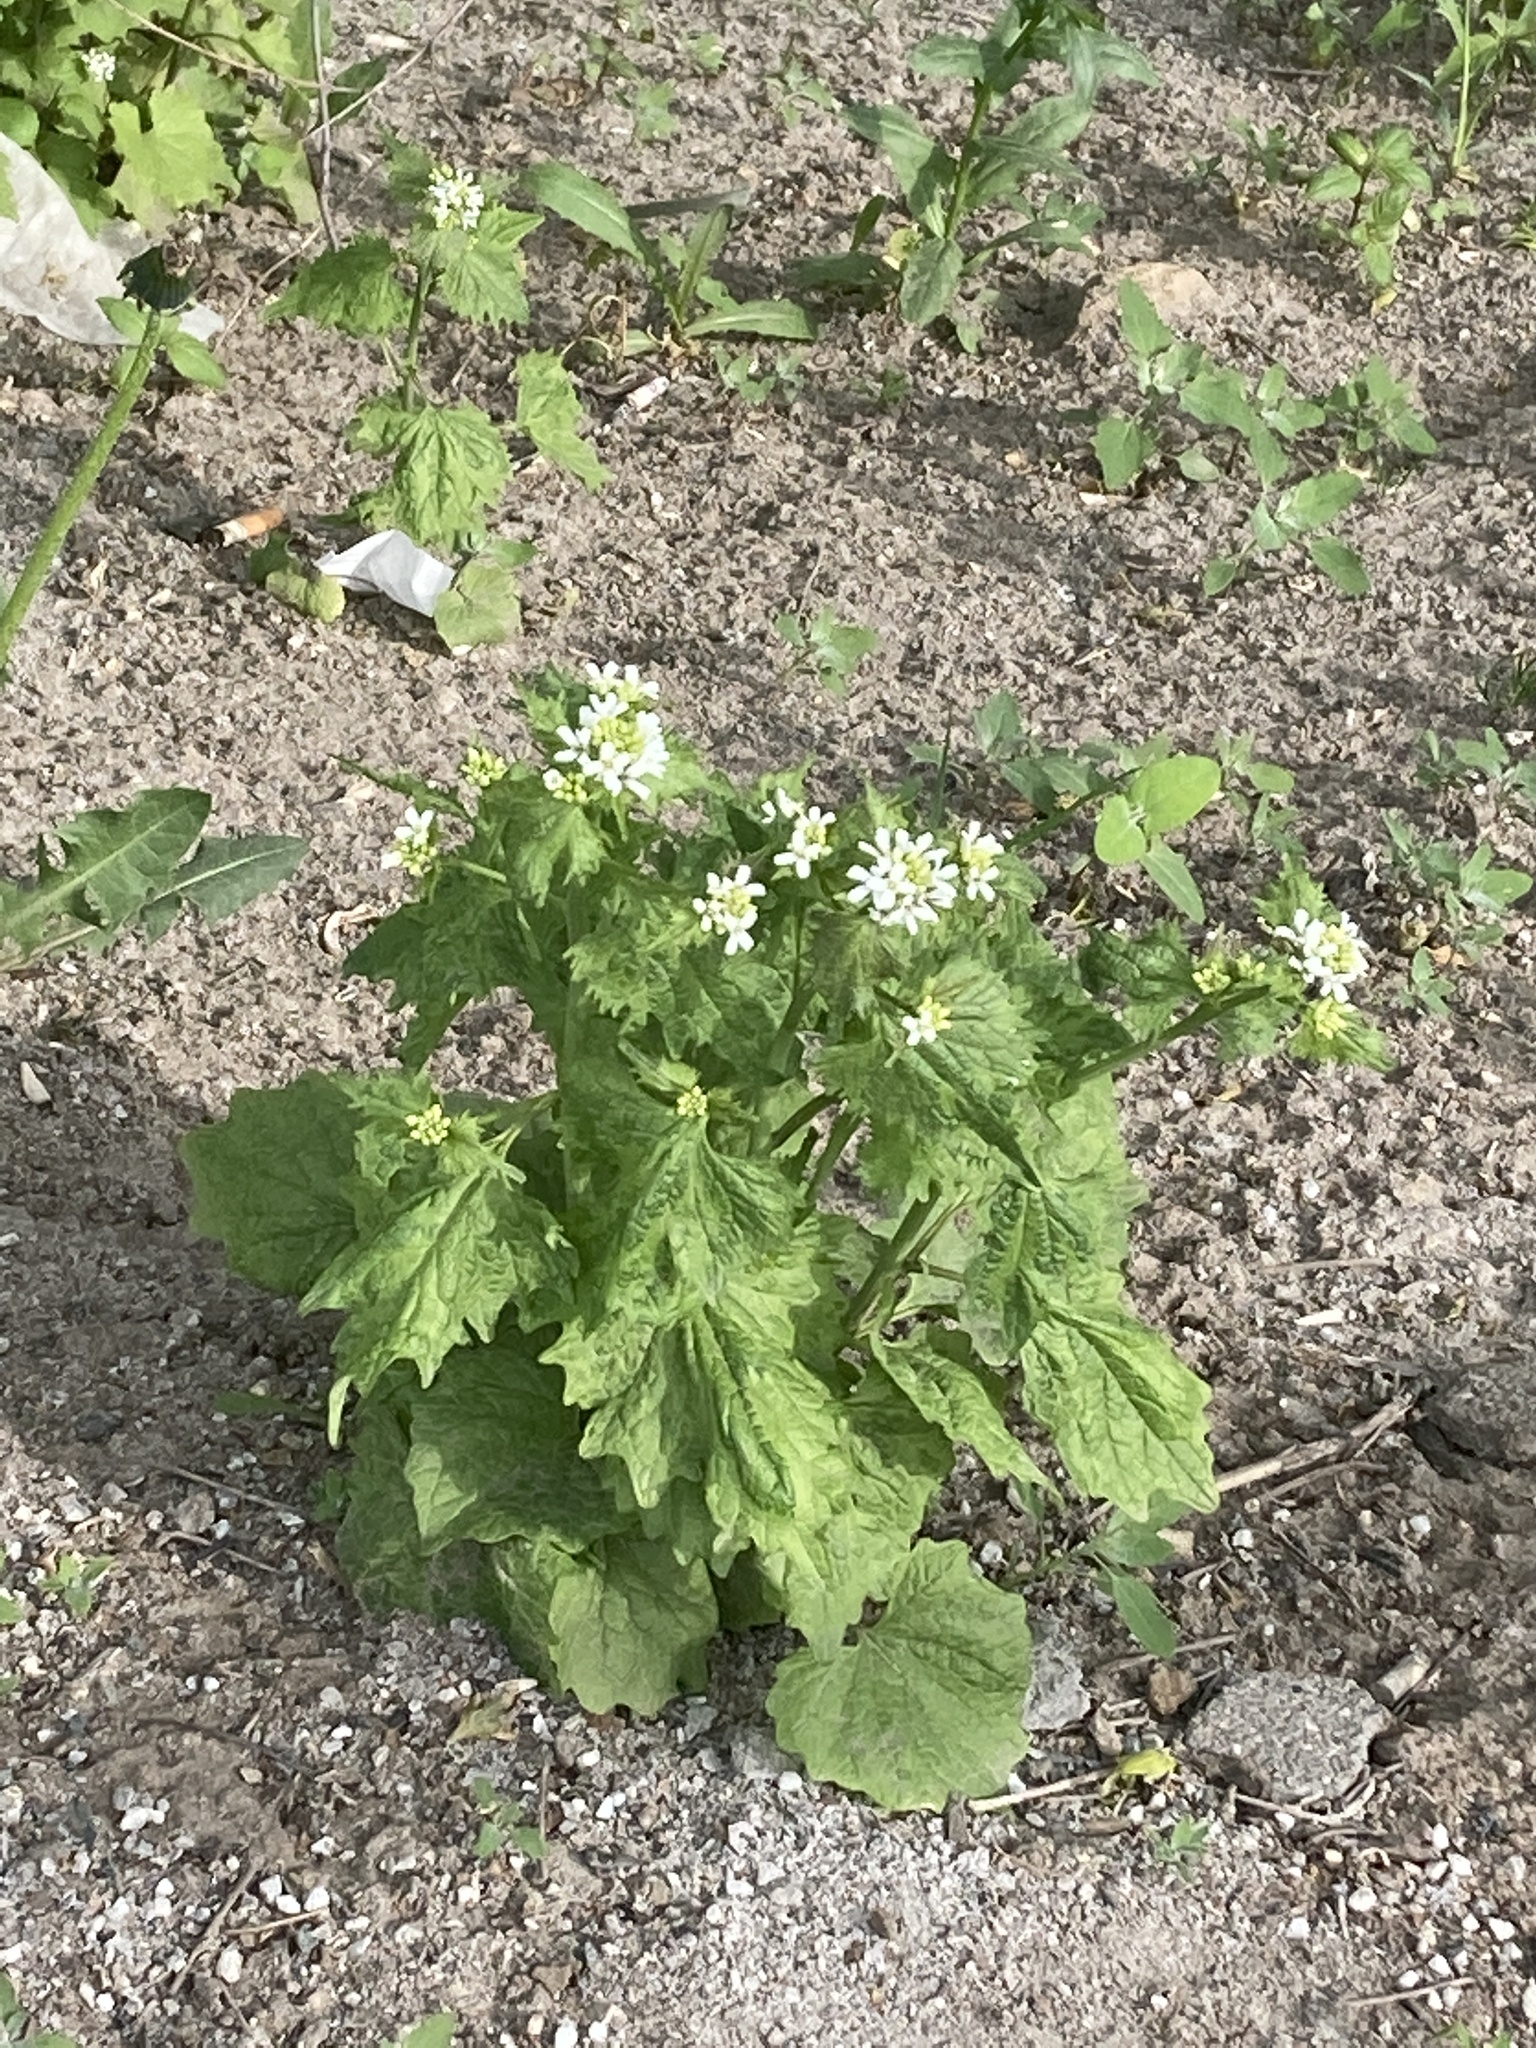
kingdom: Plantae
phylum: Tracheophyta
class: Magnoliopsida
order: Brassicales
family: Brassicaceae
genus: Alliaria
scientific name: Alliaria petiolata
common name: Garlic mustard
